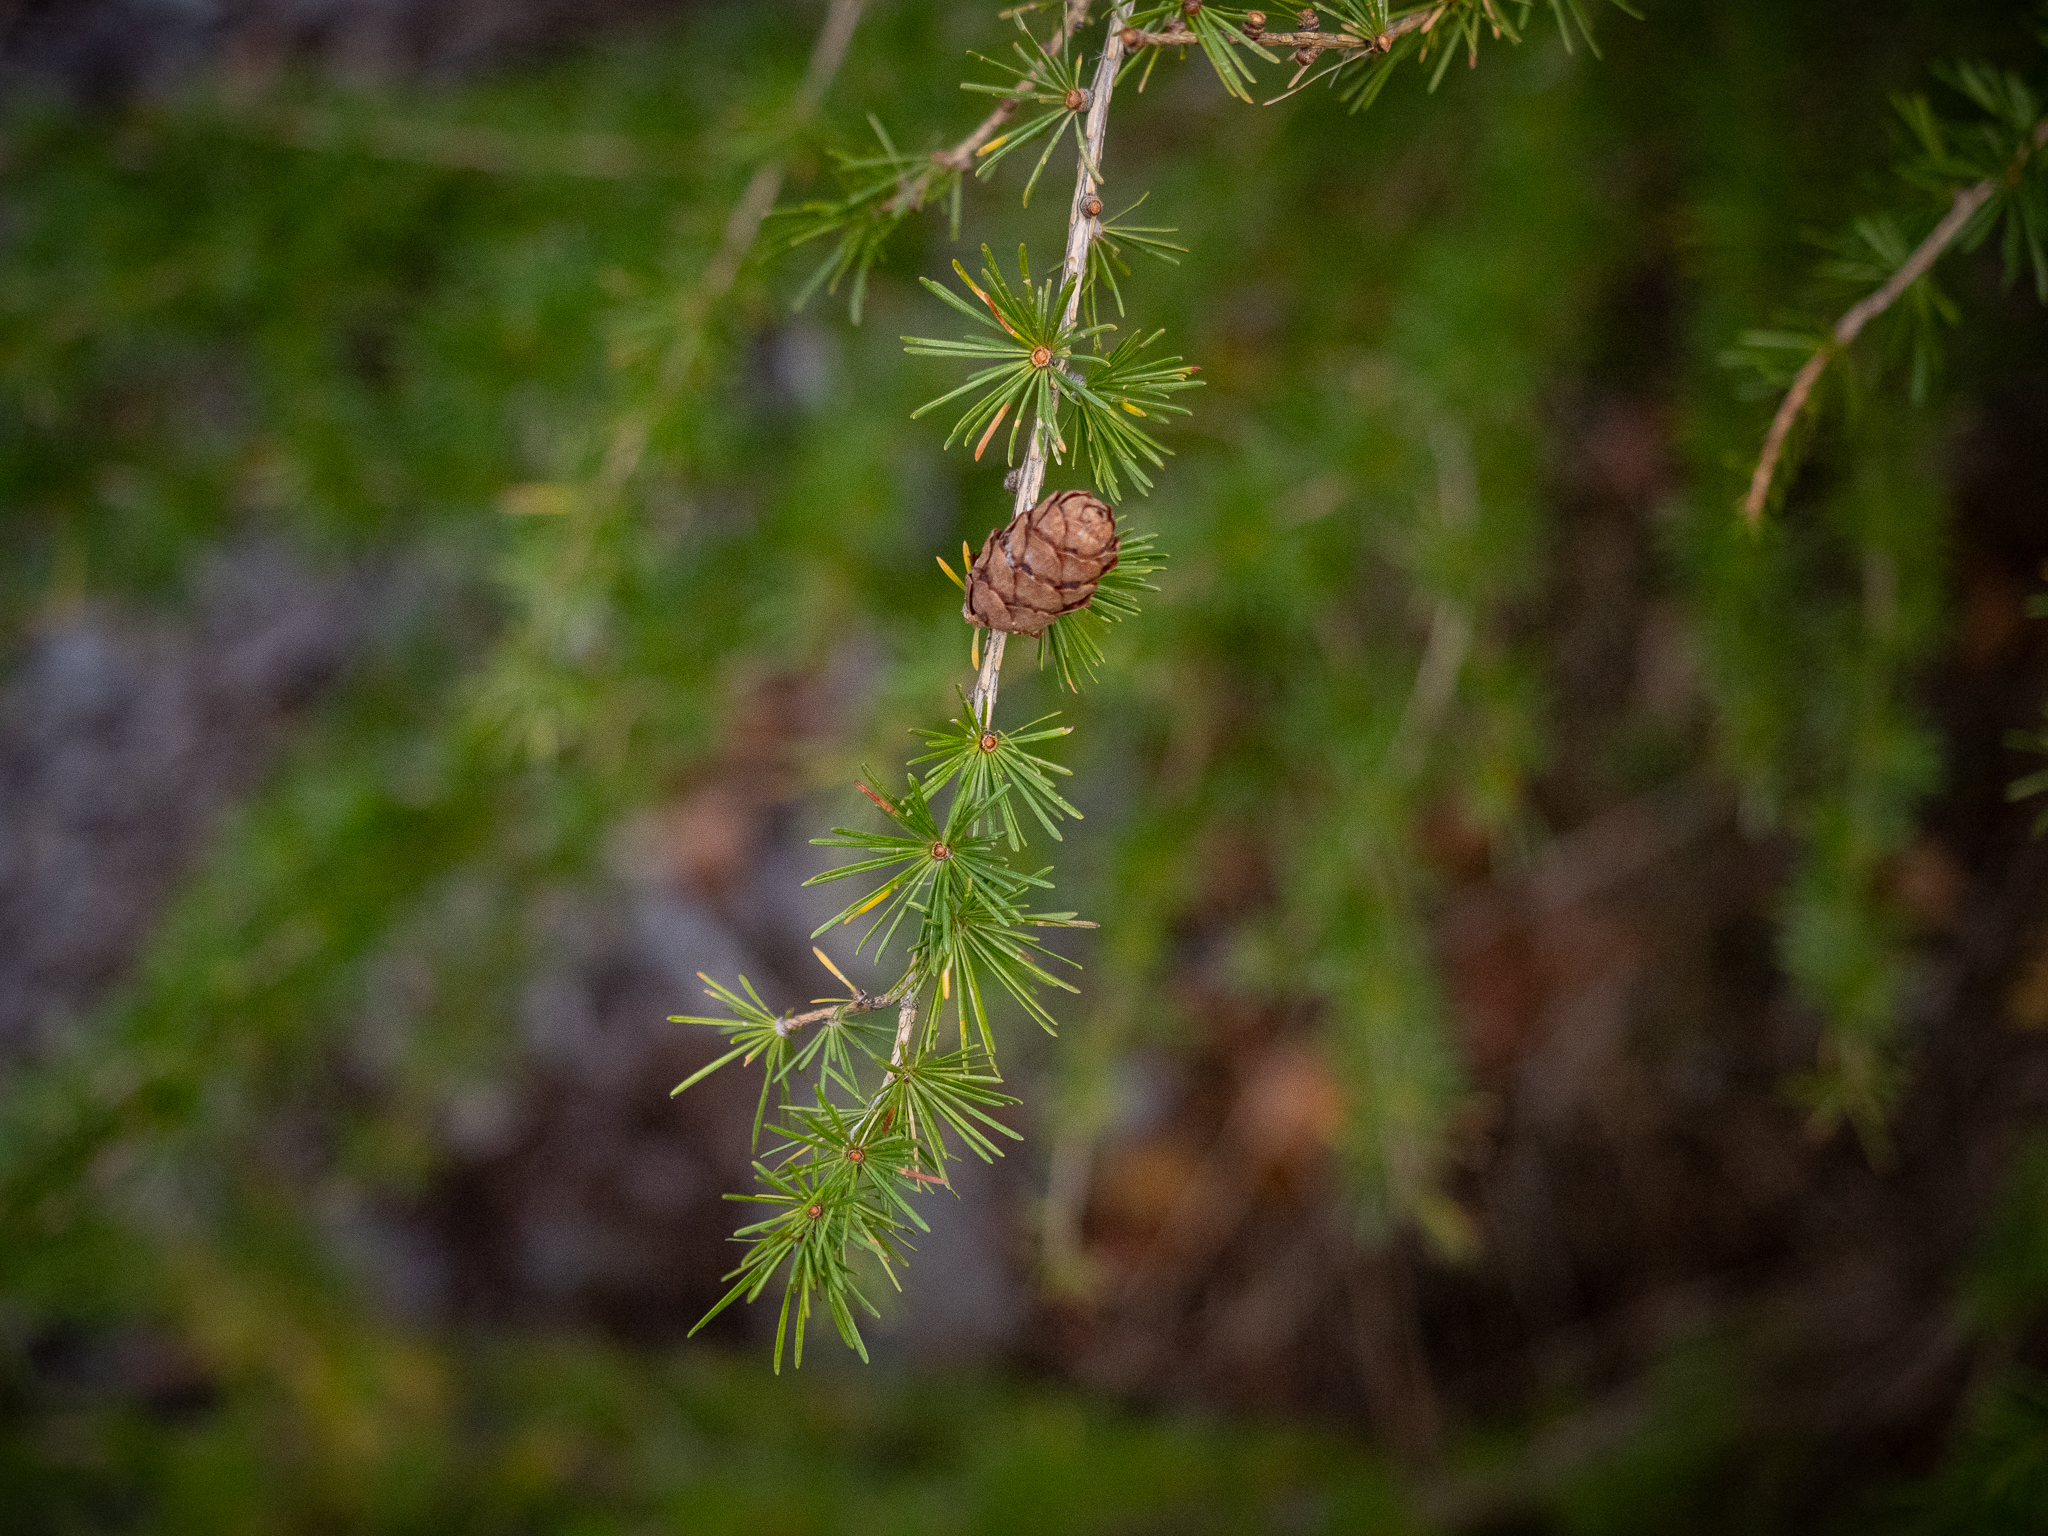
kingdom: Plantae
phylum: Tracheophyta
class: Pinopsida
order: Pinales
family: Pinaceae
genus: Larix
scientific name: Larix decidua
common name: European larch
